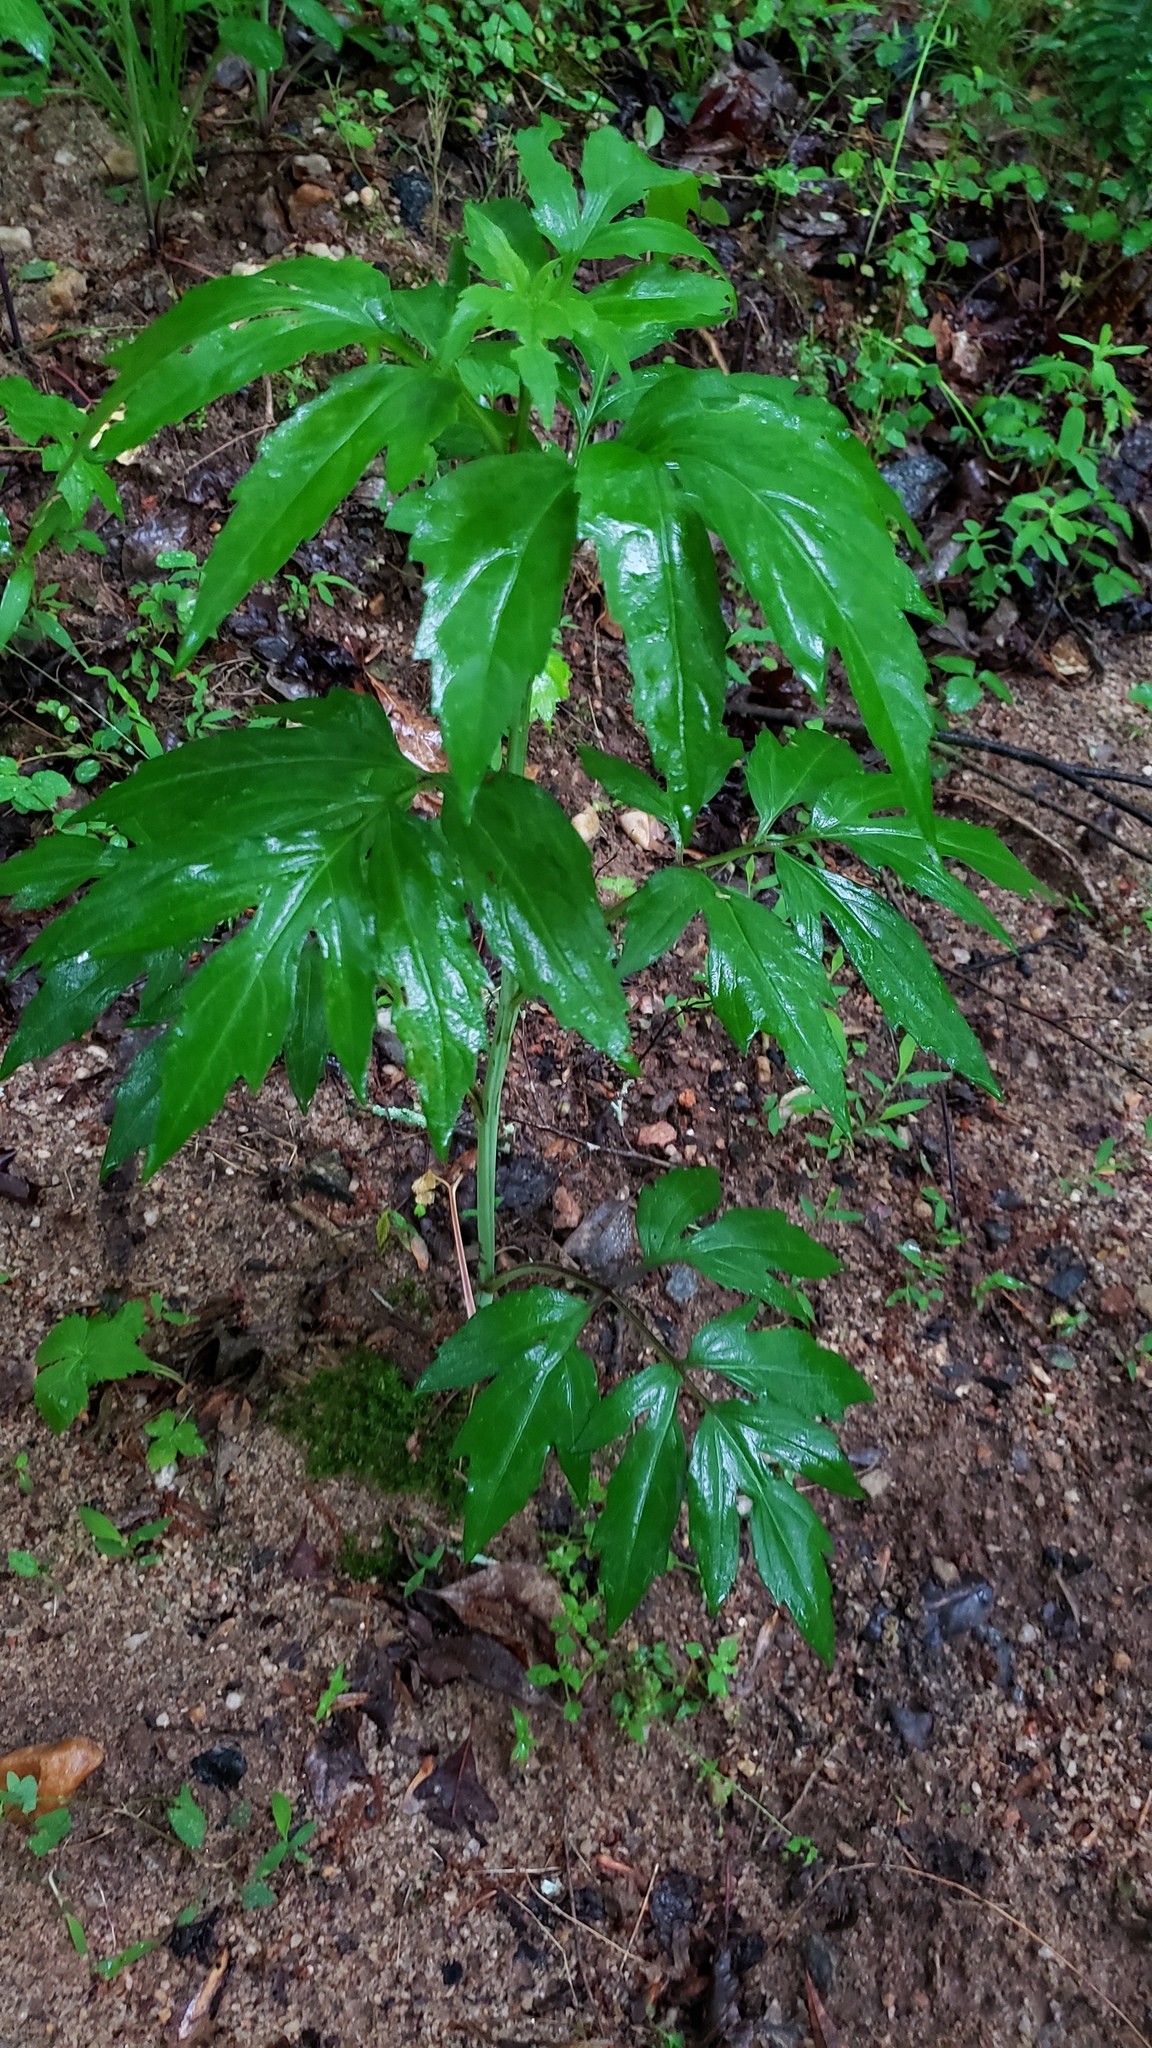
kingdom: Plantae
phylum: Tracheophyta
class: Magnoliopsida
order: Asterales
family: Asteraceae
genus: Rudbeckia
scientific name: Rudbeckia laciniata
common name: Coneflower
